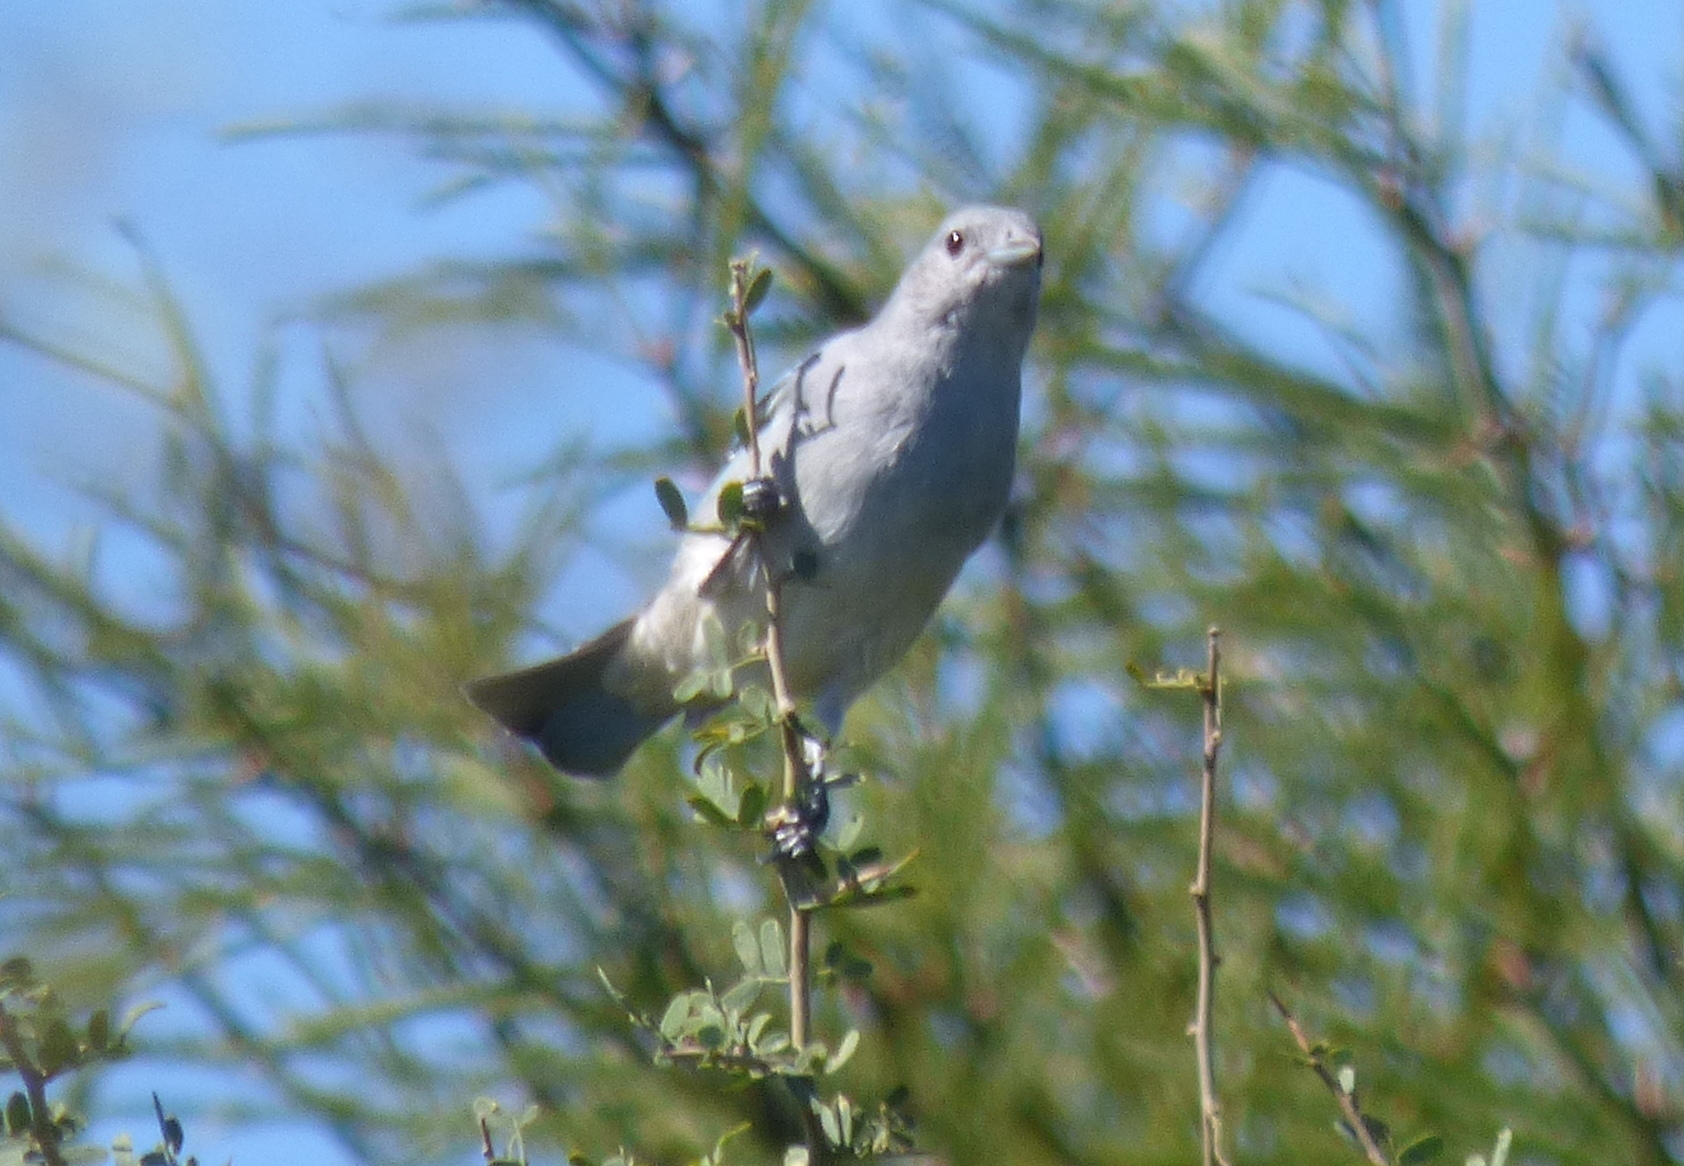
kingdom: Animalia
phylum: Chordata
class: Aves
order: Passeriformes
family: Thraupidae
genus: Thraupis
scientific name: Thraupis sayaca
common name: Sayaca tanager
